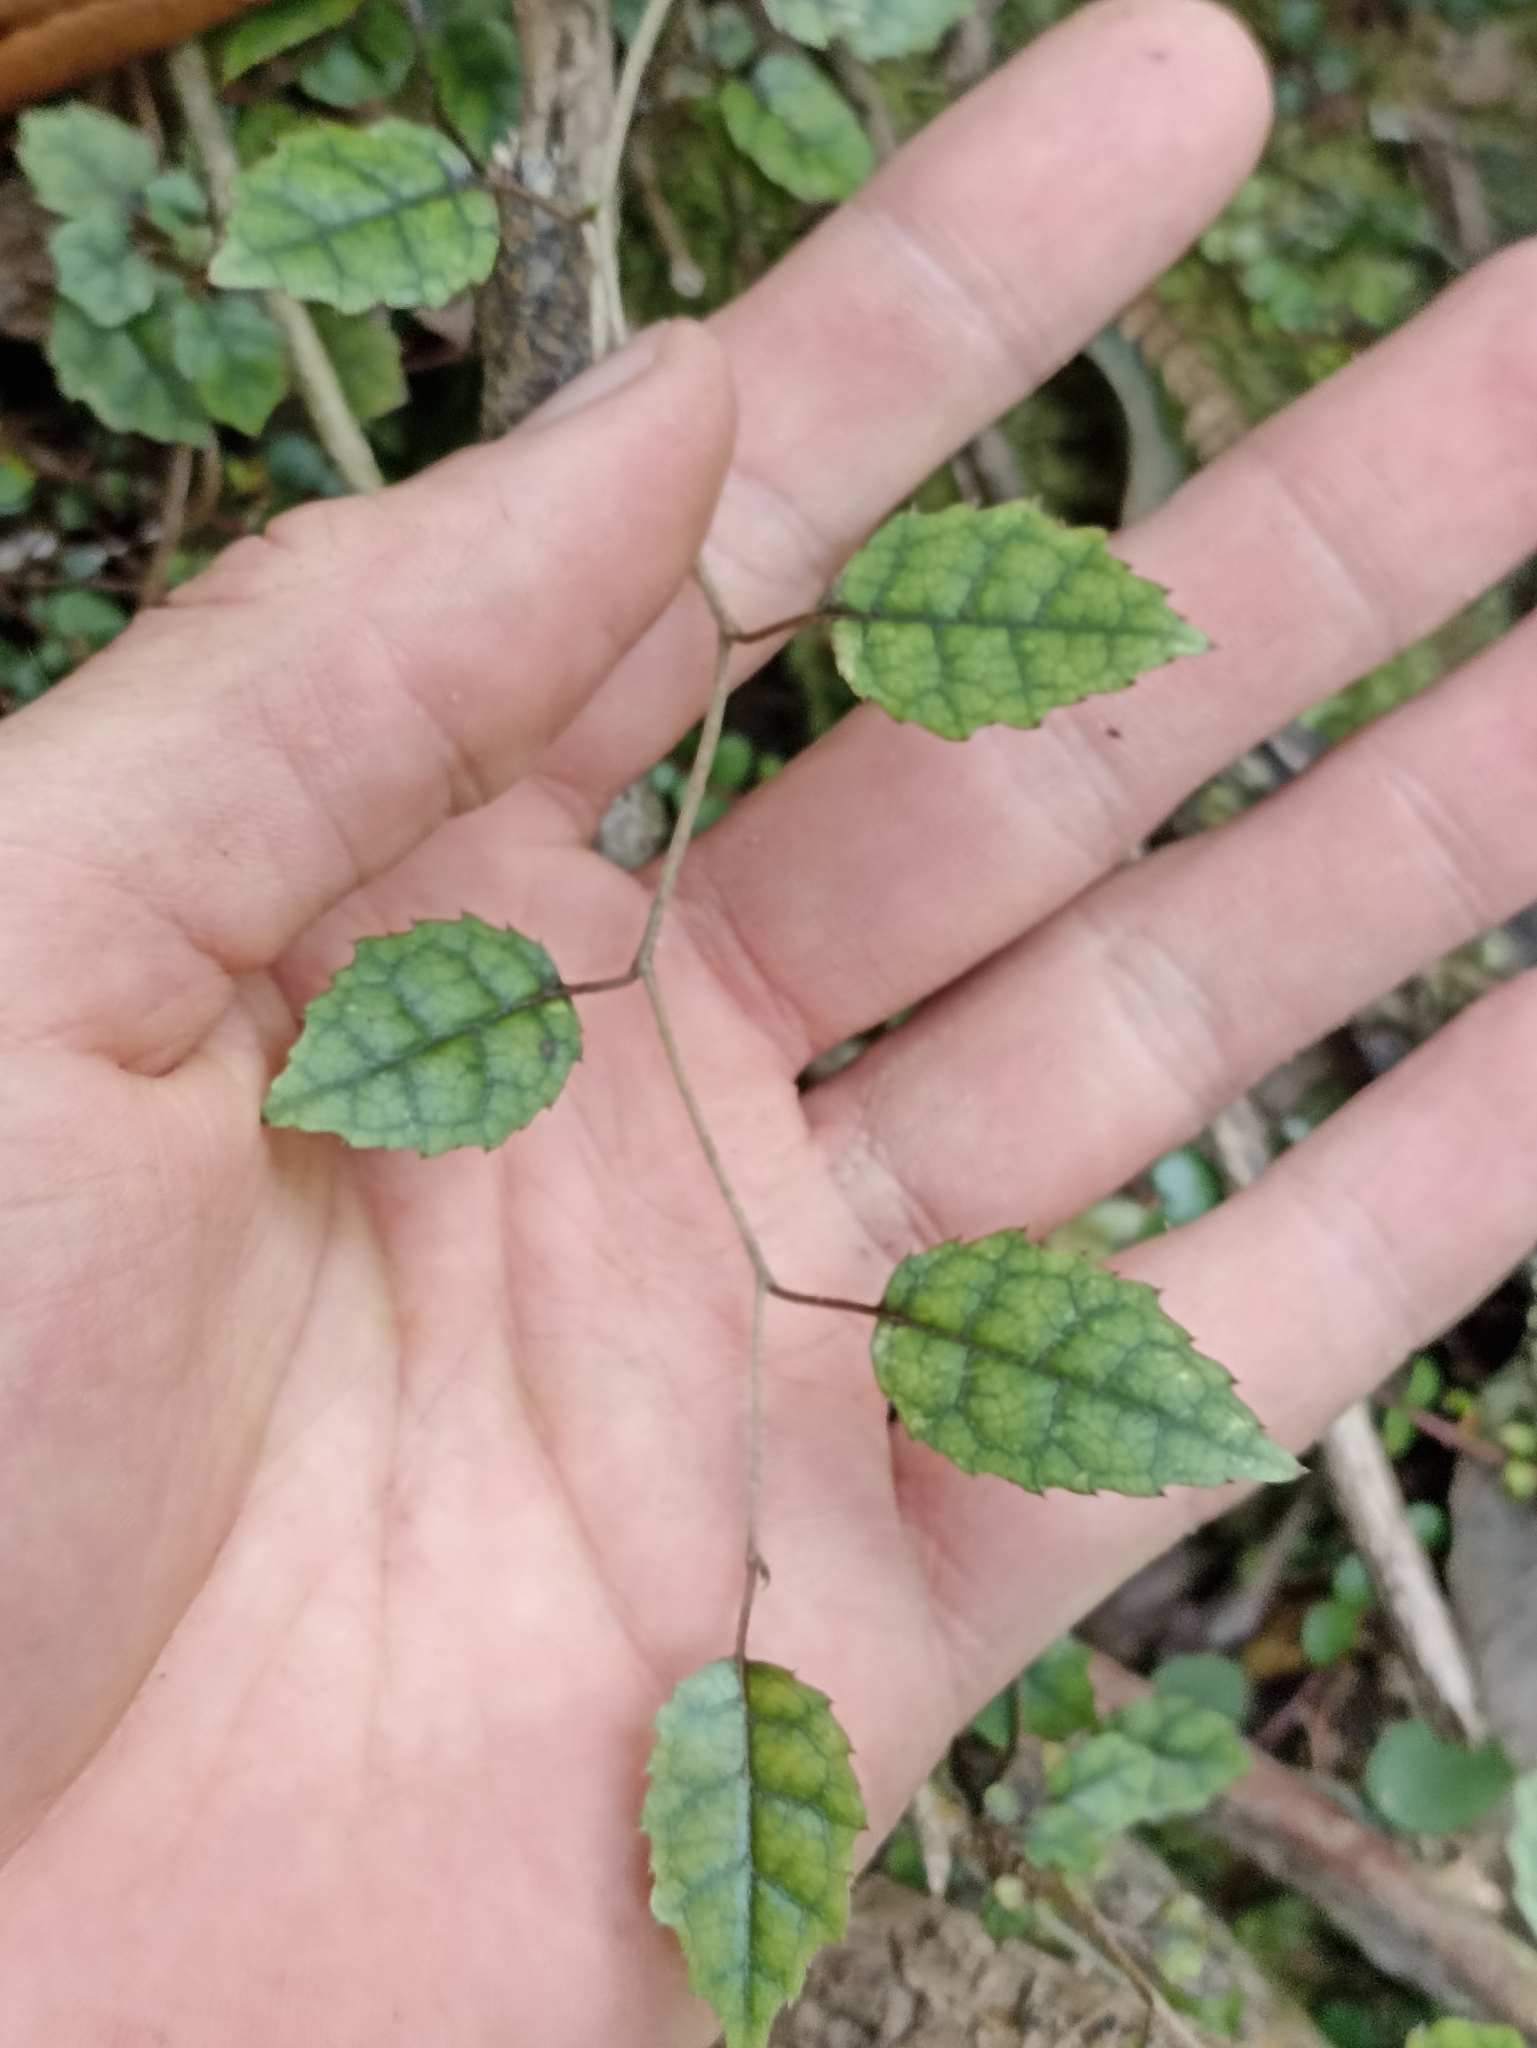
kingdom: Plantae
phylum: Tracheophyta
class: Magnoliopsida
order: Asterales
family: Rousseaceae
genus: Carpodetus
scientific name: Carpodetus serratus
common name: White mapau
